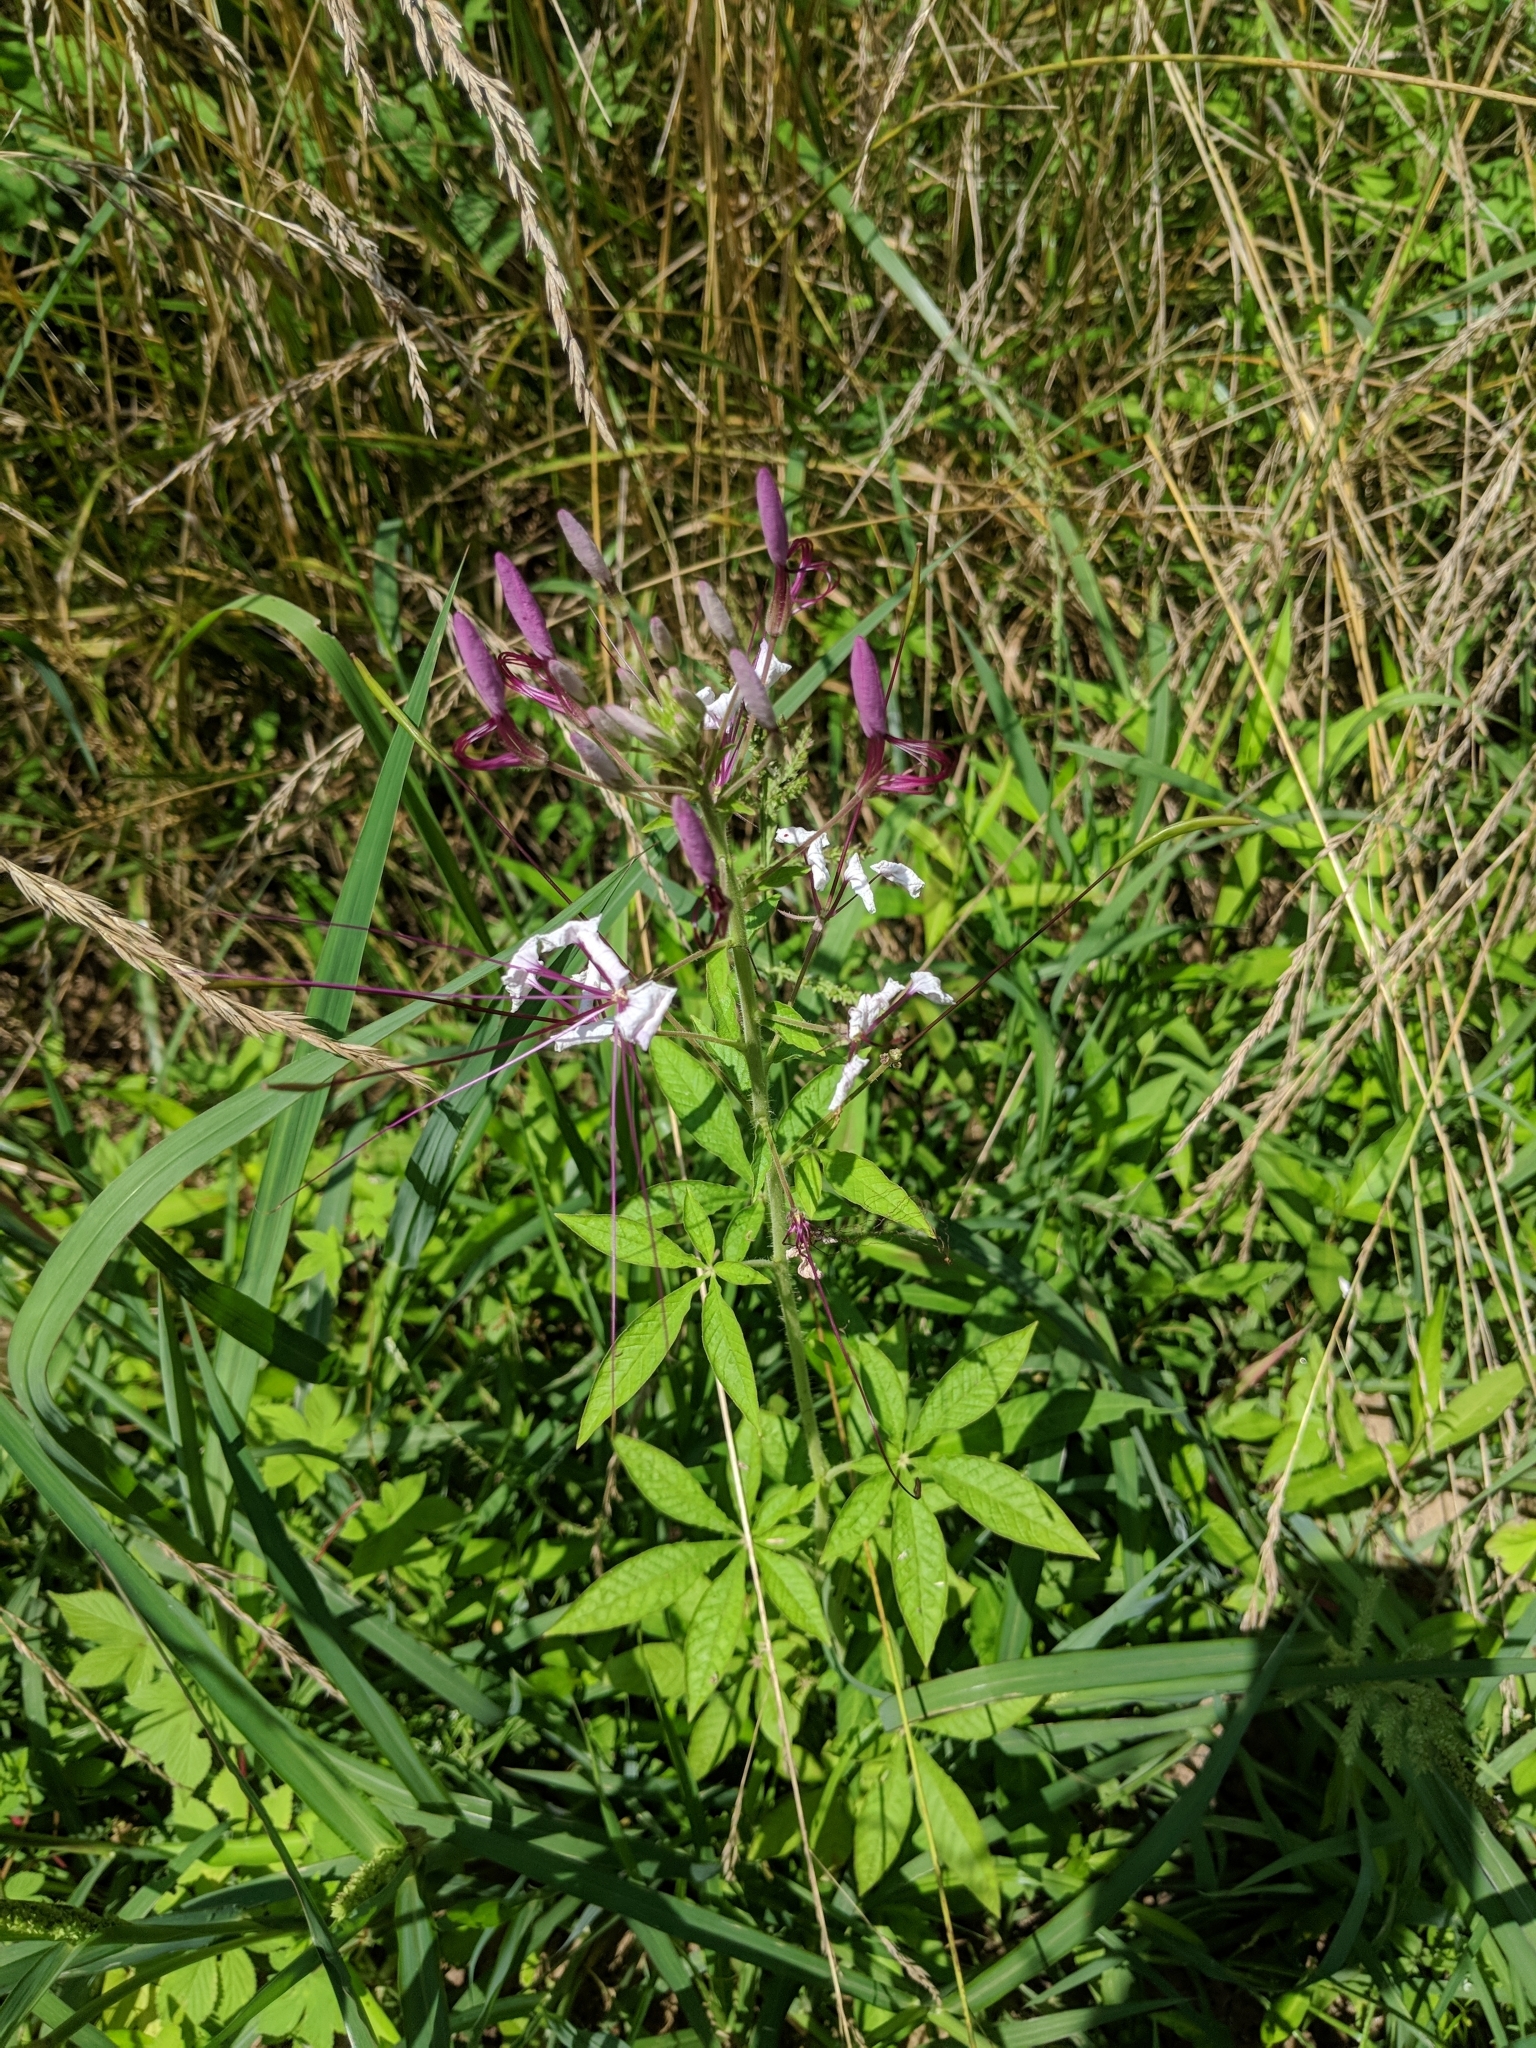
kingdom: Plantae
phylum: Tracheophyta
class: Magnoliopsida
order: Brassicales
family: Cleomaceae
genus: Tarenaya
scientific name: Tarenaya houtteana
